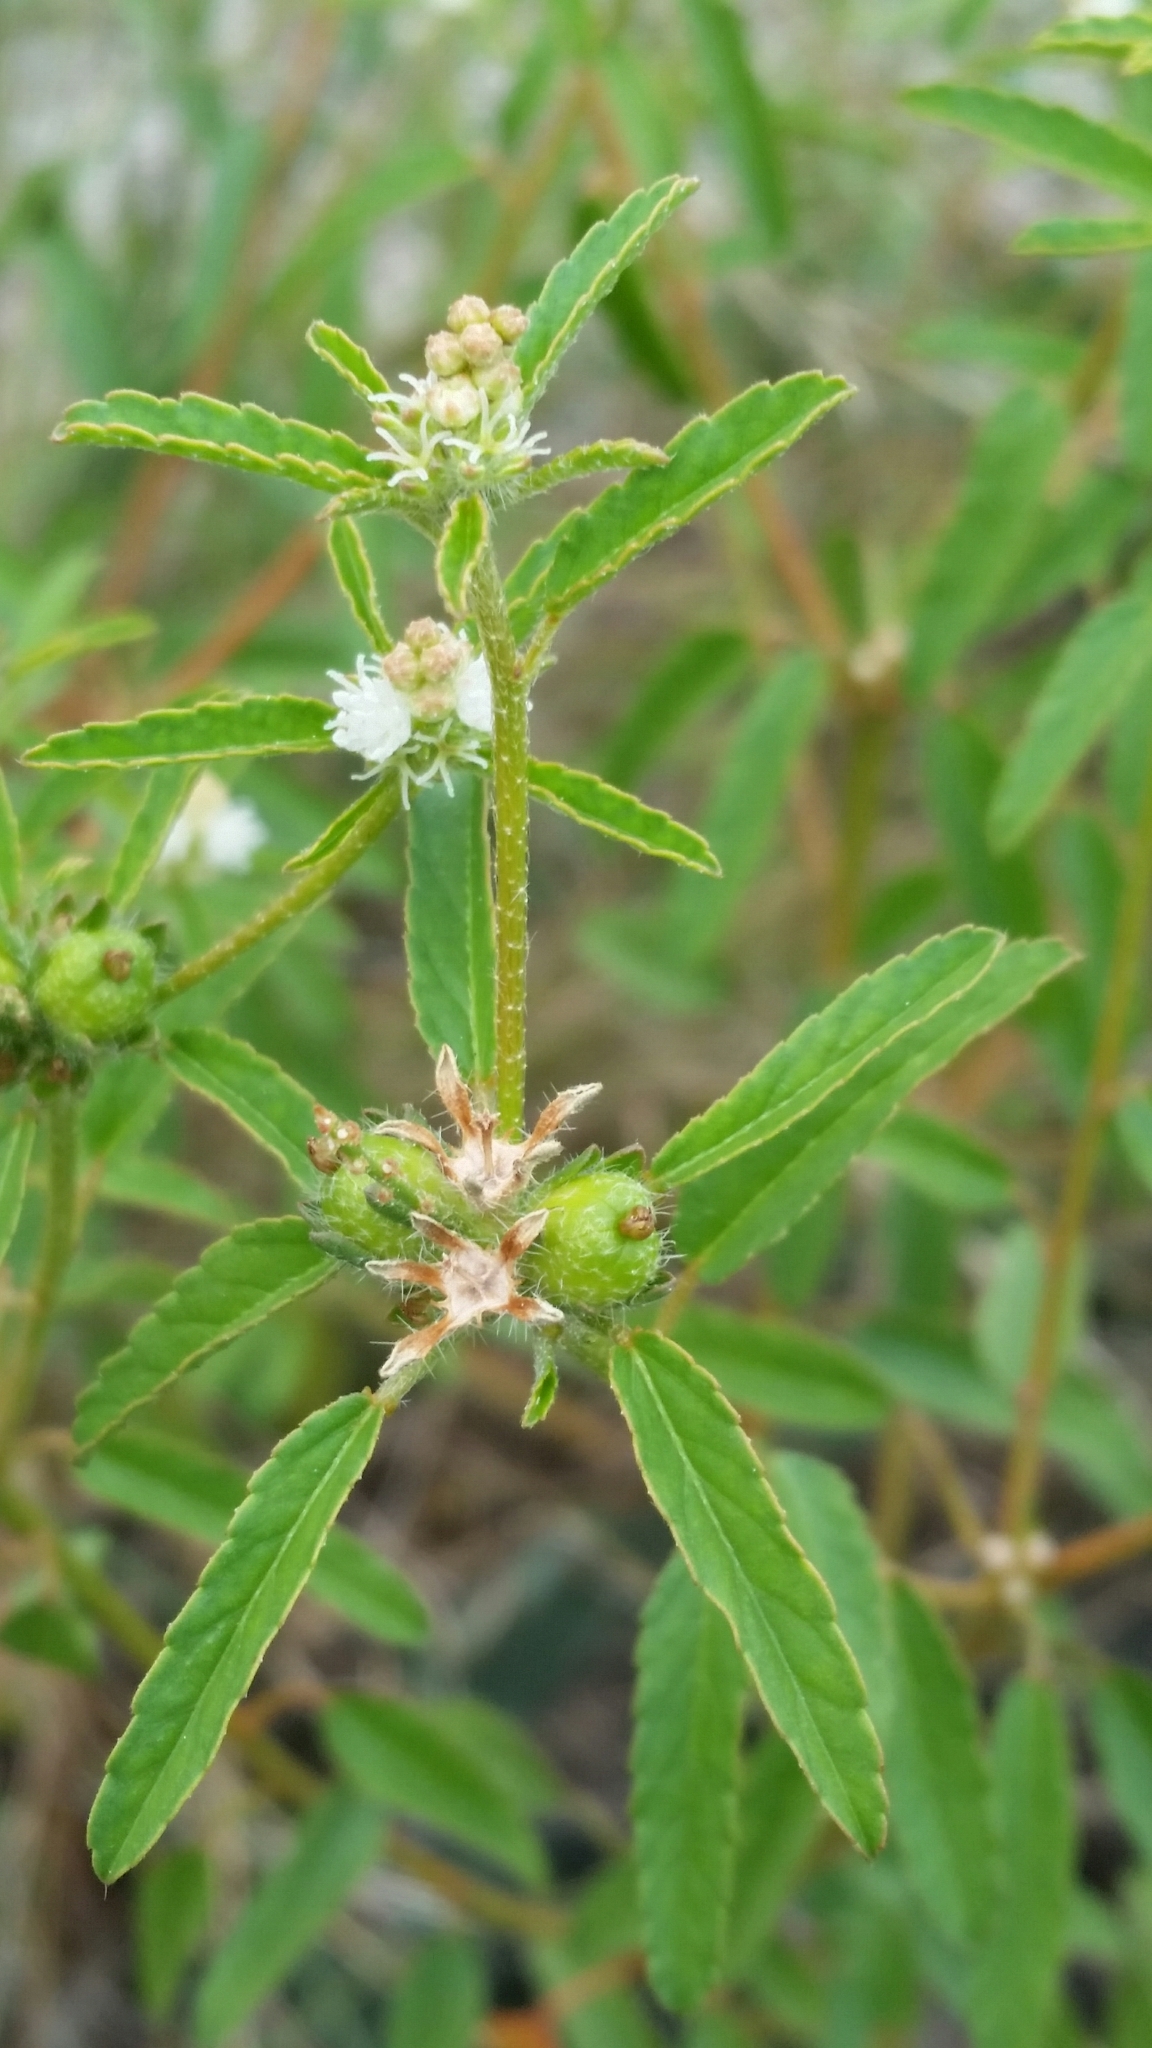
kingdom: Plantae
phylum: Tracheophyta
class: Magnoliopsida
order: Malpighiales
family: Euphorbiaceae
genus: Croton
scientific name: Croton glandulosus
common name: Tropic croton
